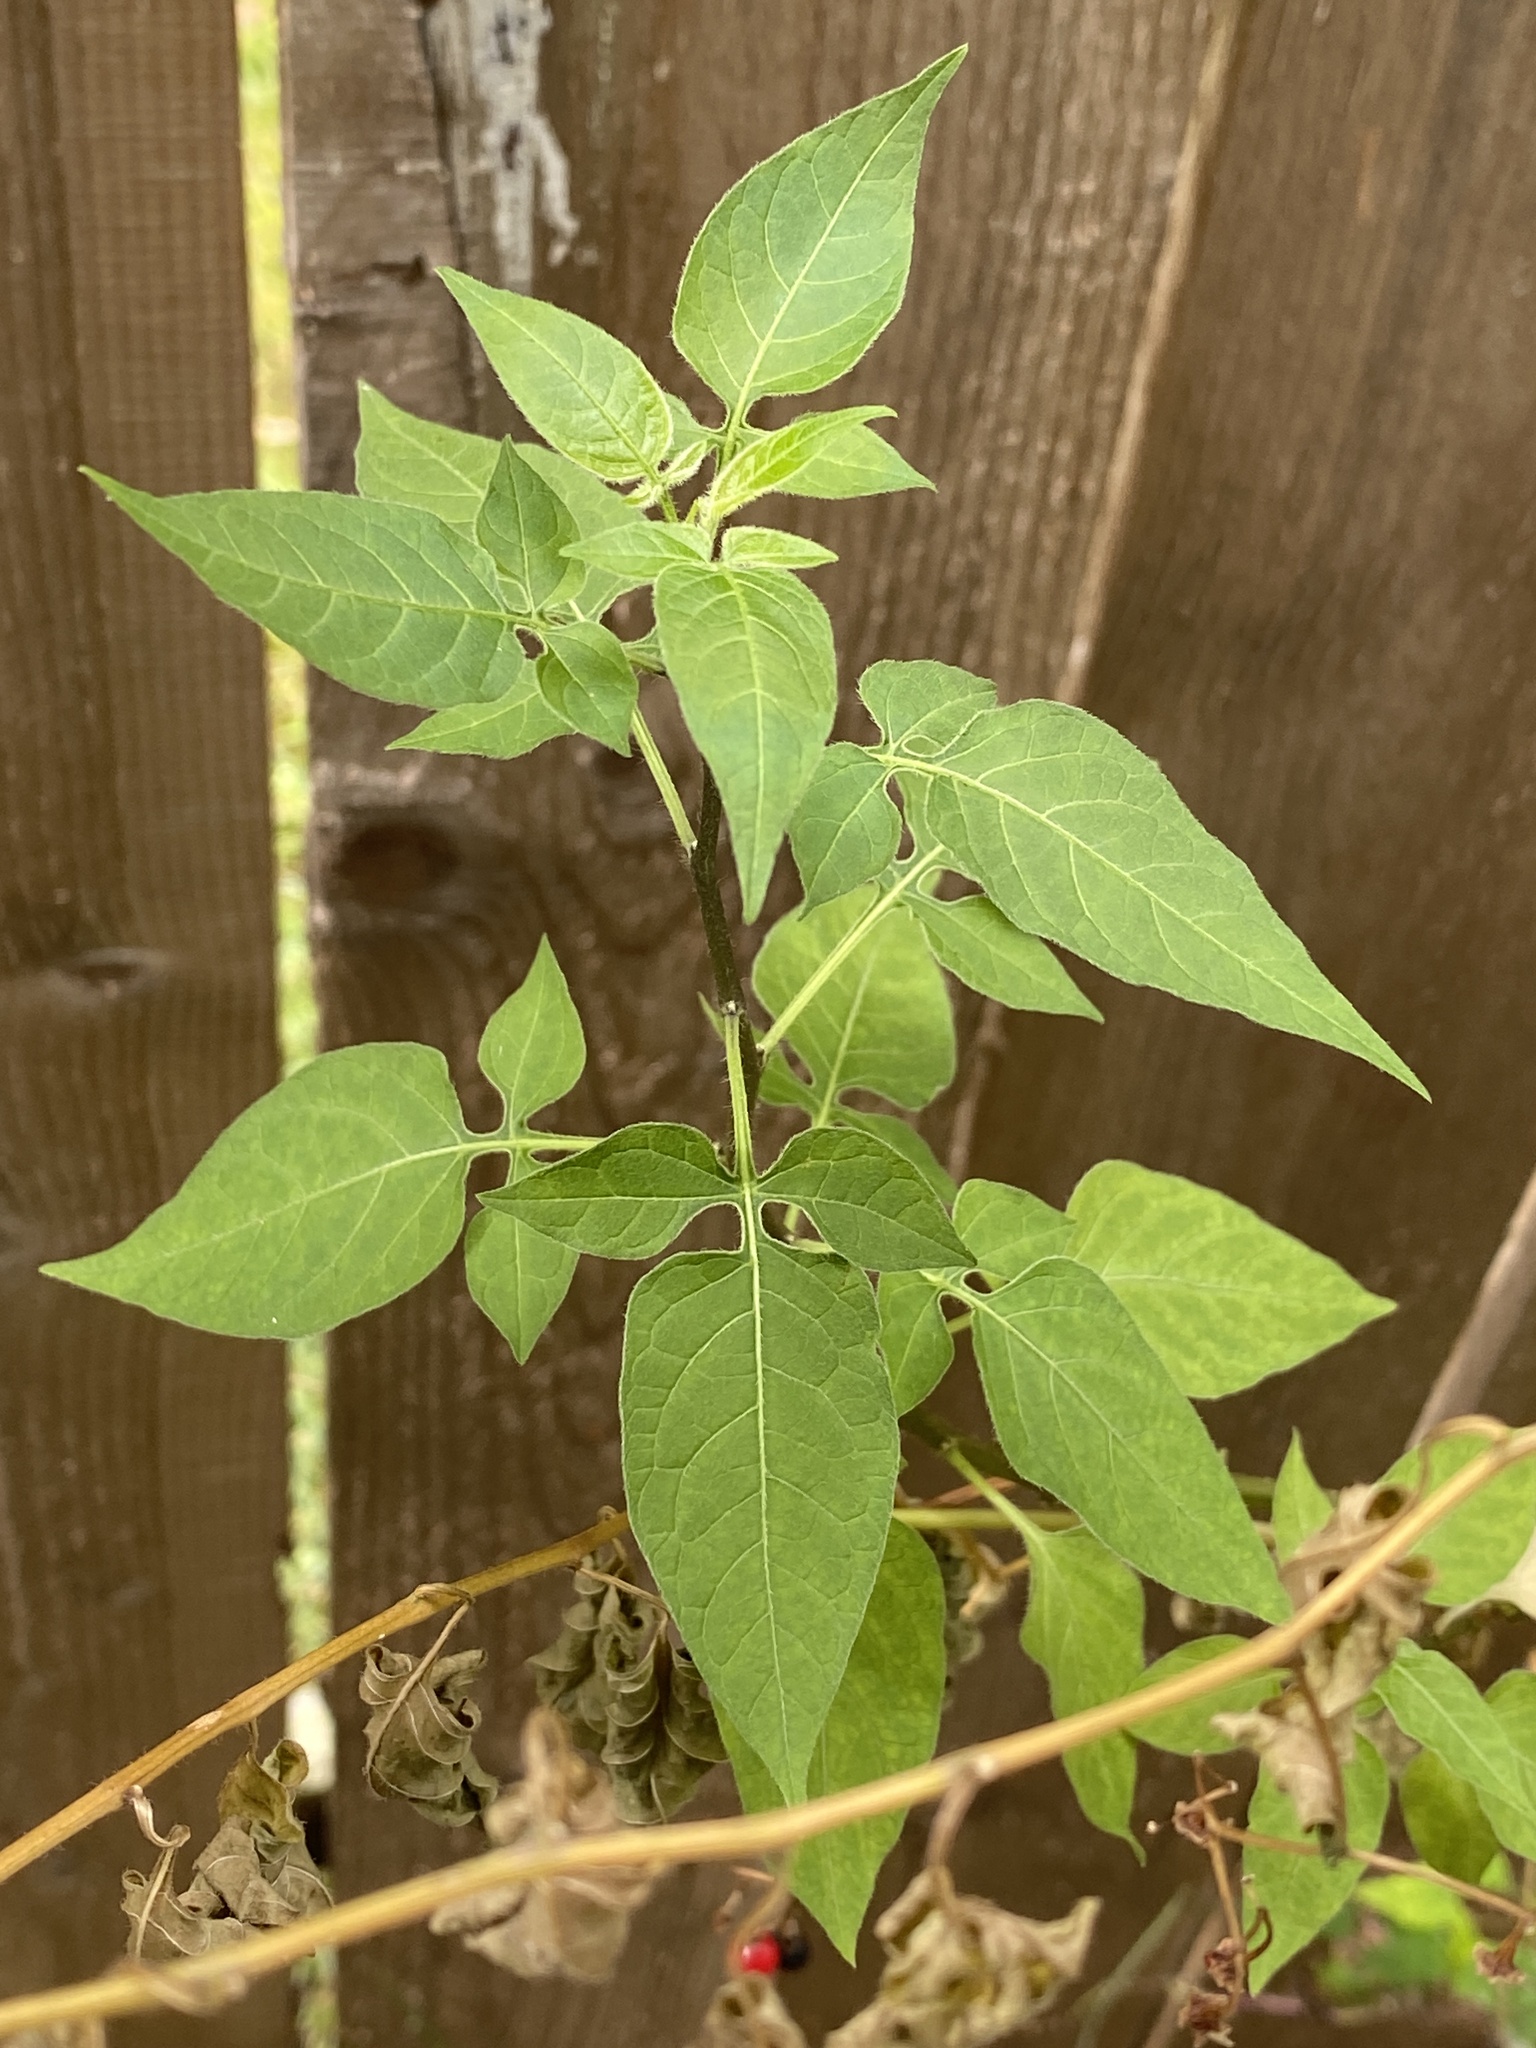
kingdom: Plantae
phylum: Tracheophyta
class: Magnoliopsida
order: Solanales
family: Solanaceae
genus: Solanum
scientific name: Solanum dulcamara
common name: Climbing nightshade
